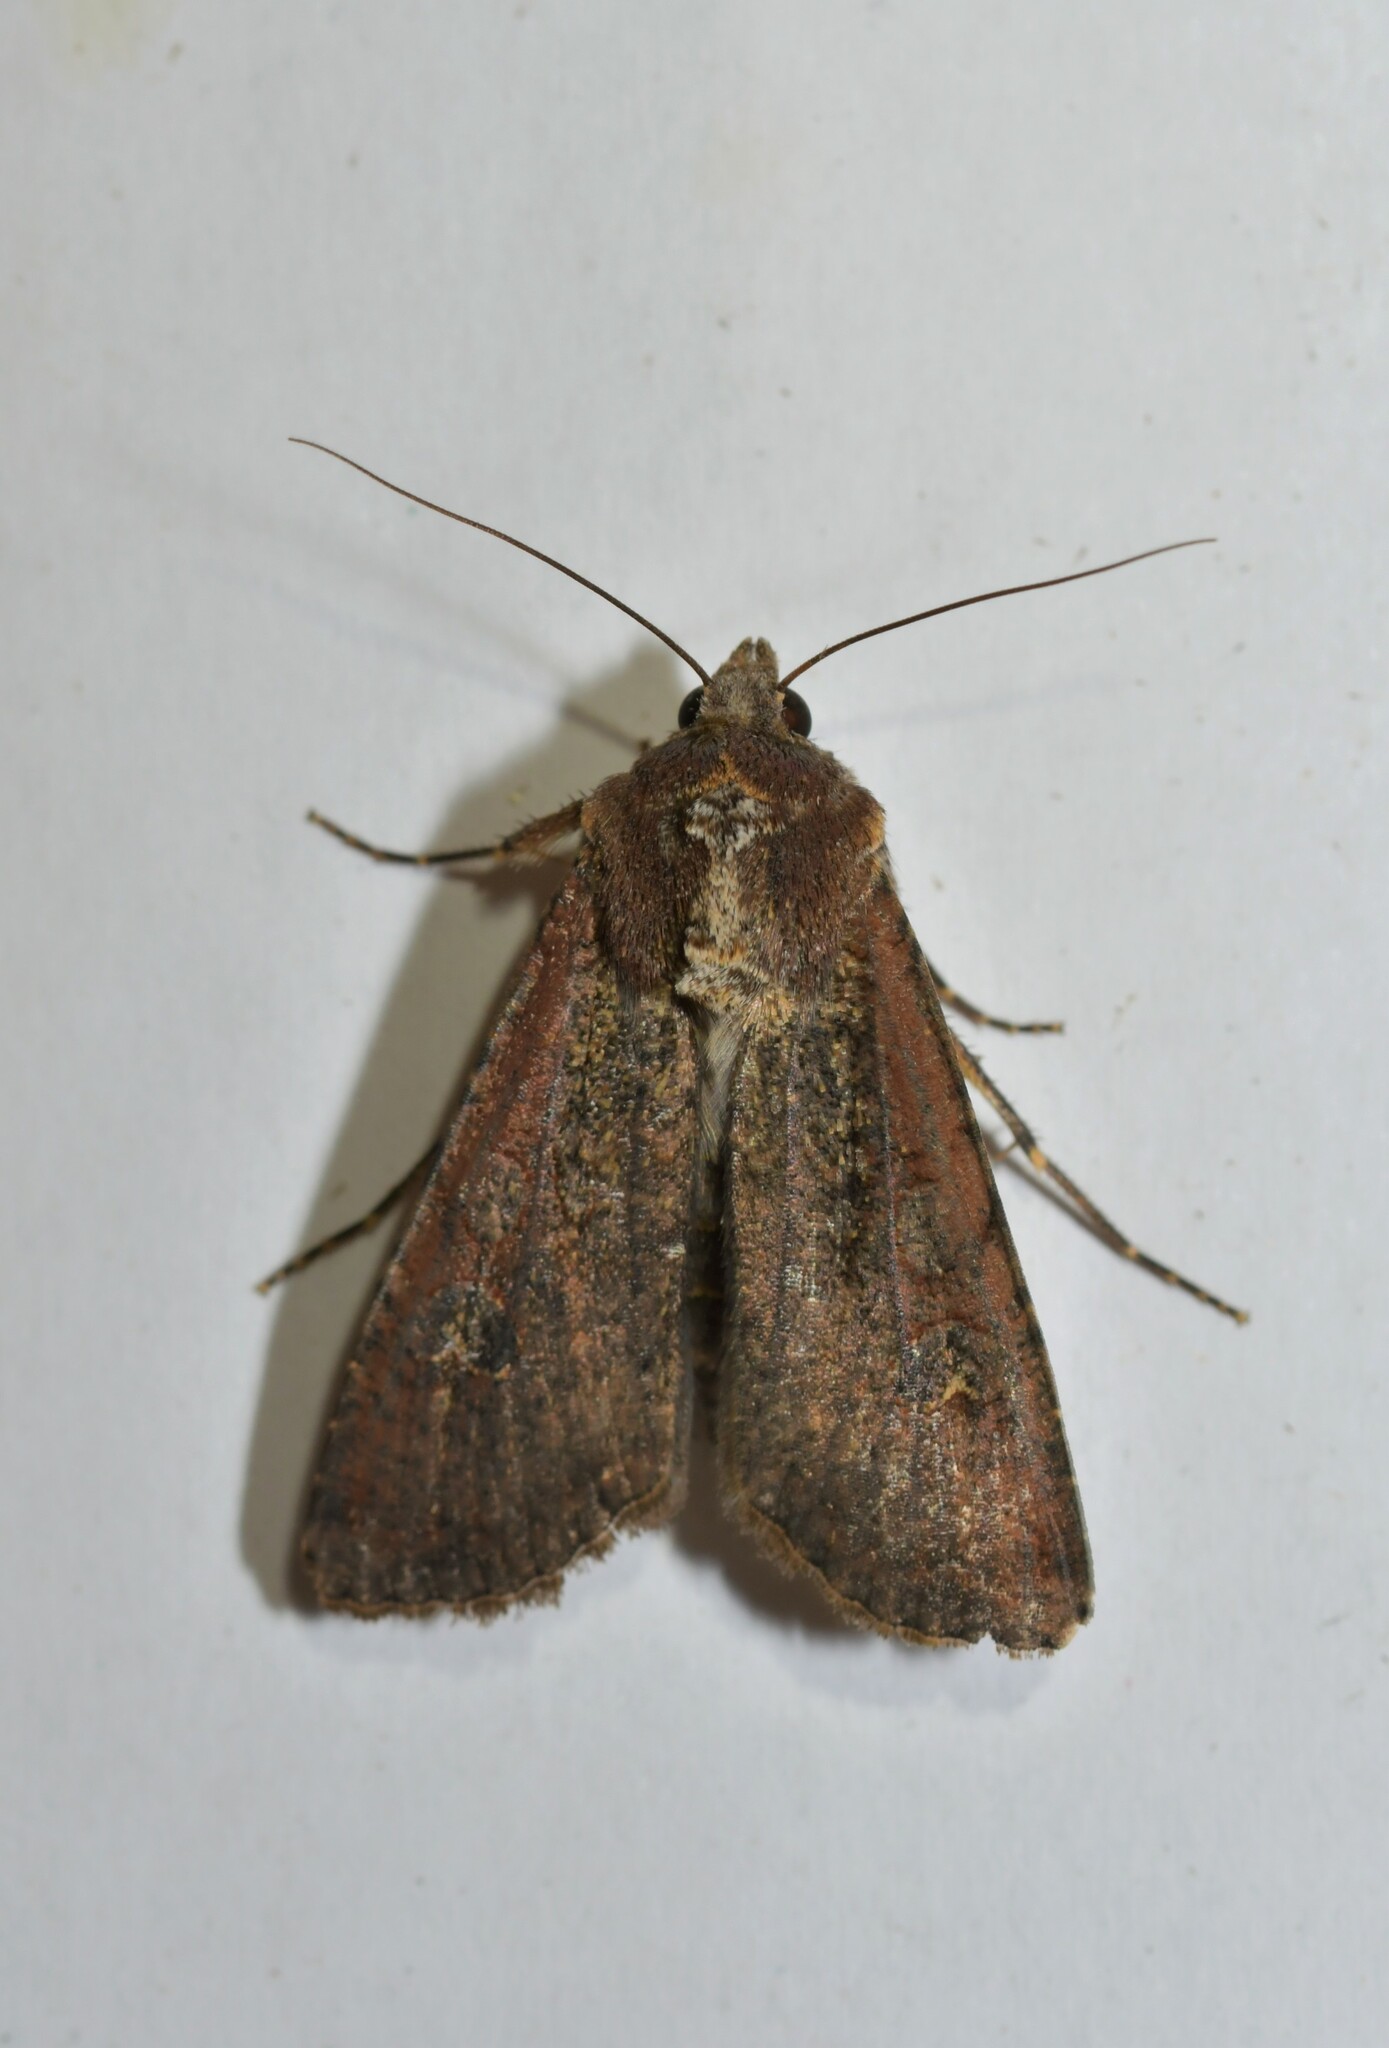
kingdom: Animalia
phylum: Arthropoda
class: Insecta
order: Lepidoptera
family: Noctuidae
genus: Peridroma
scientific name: Peridroma saucia
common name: Pearly underwing
